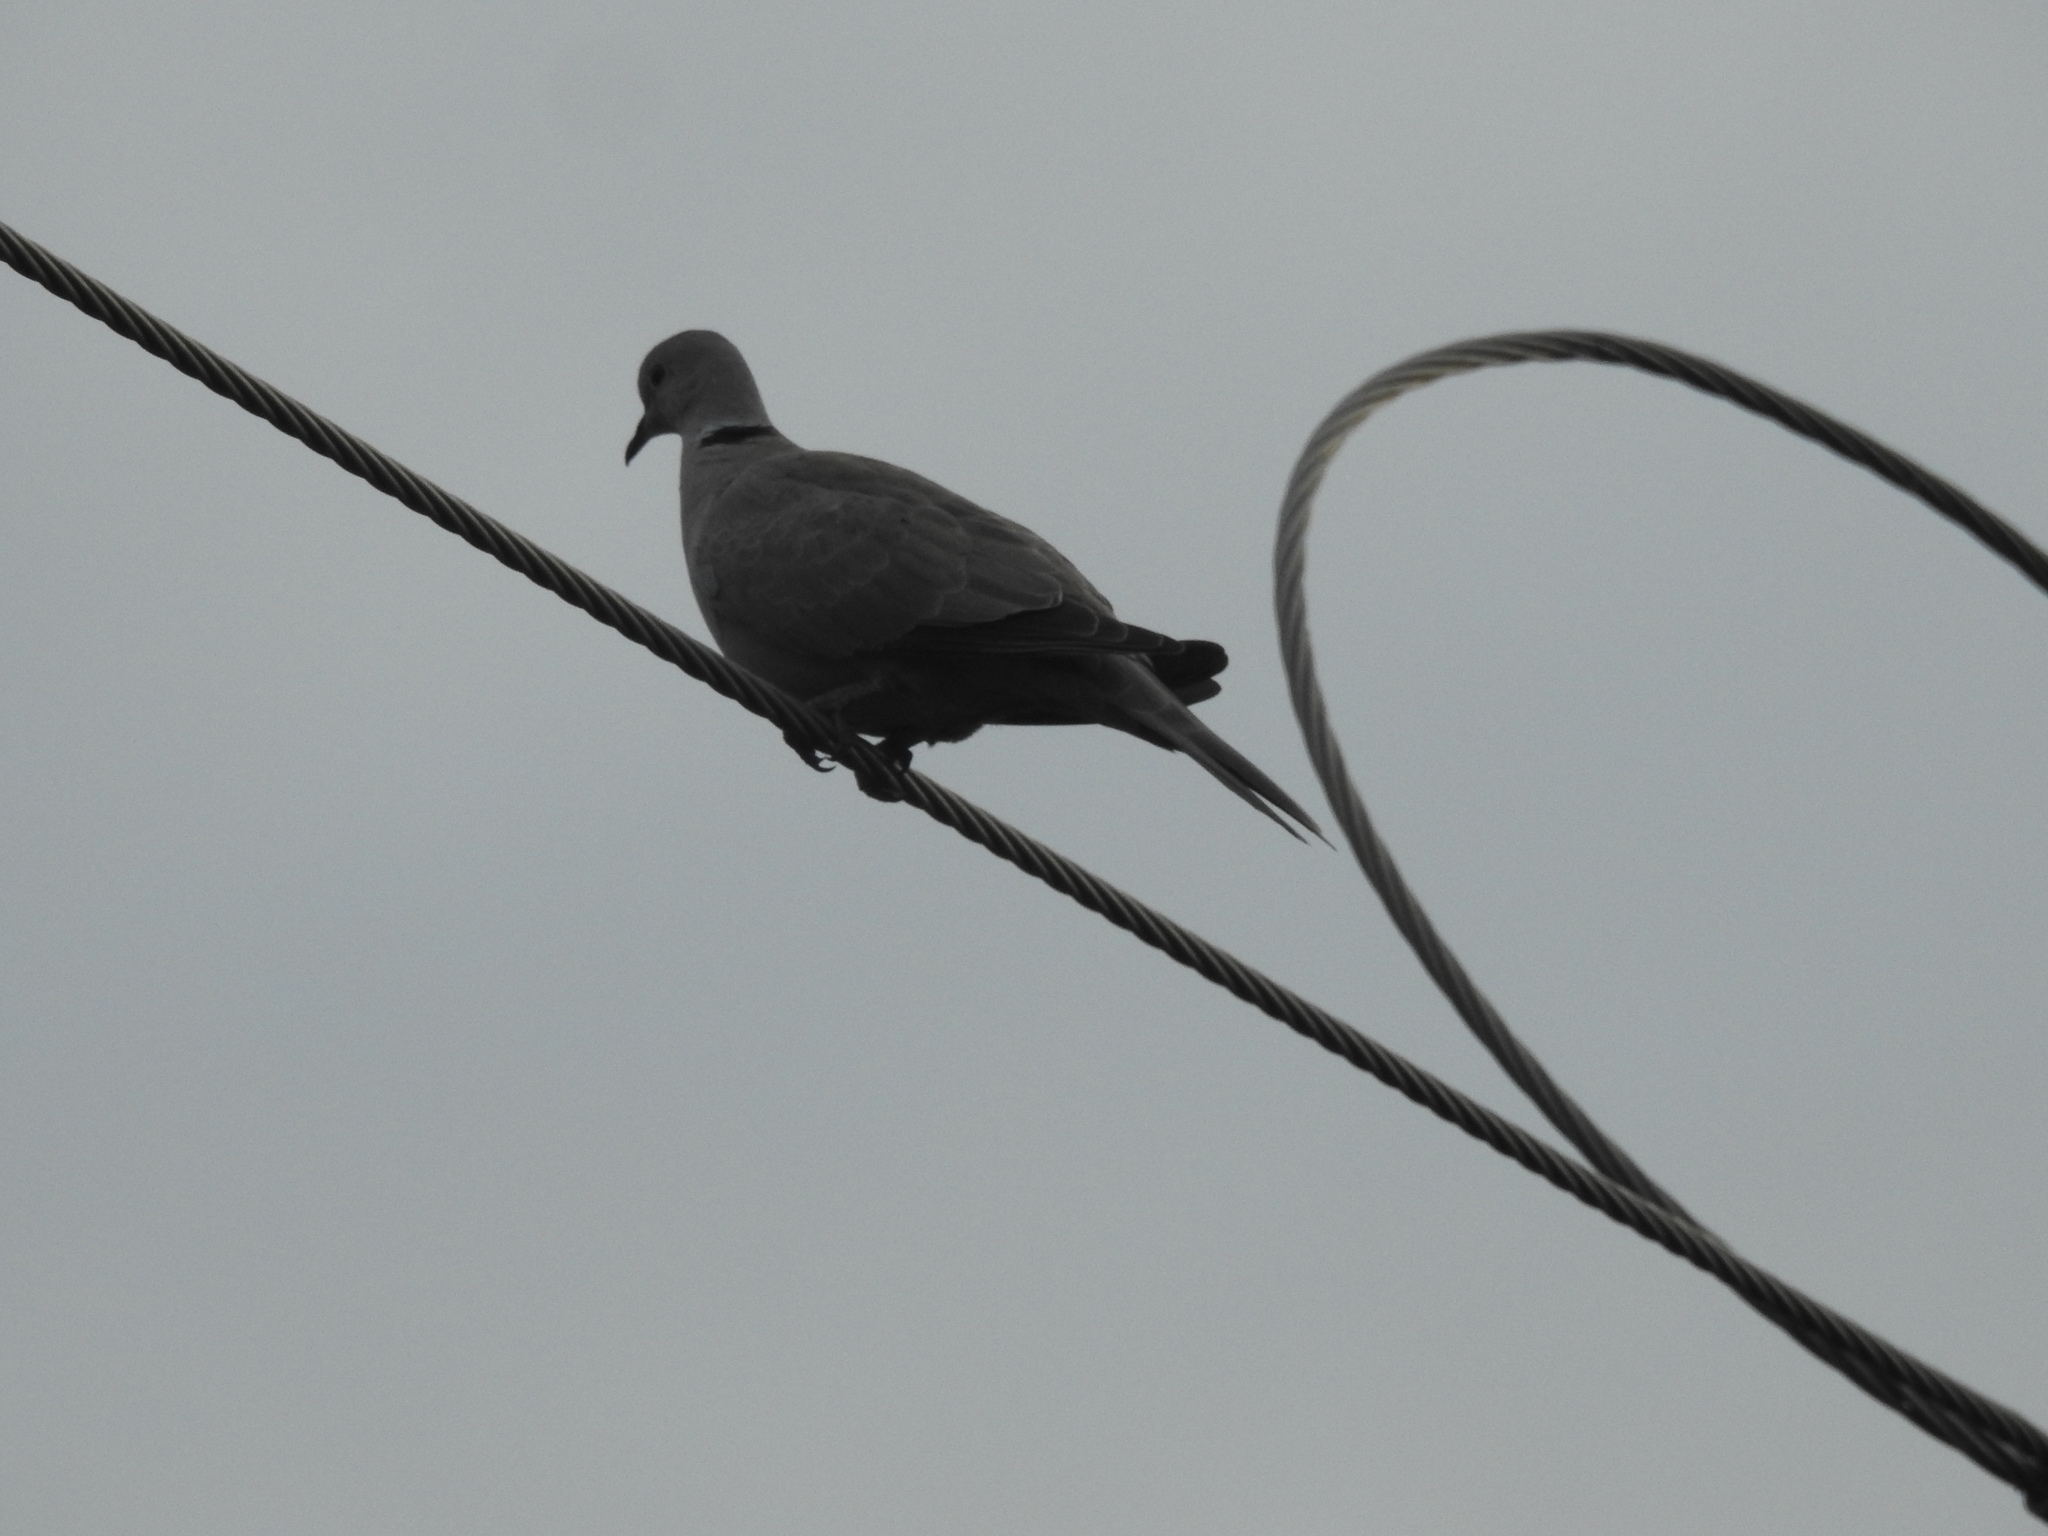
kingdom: Animalia
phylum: Chordata
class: Aves
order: Columbiformes
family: Columbidae
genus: Streptopelia
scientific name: Streptopelia decaocto
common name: Eurasian collared dove
